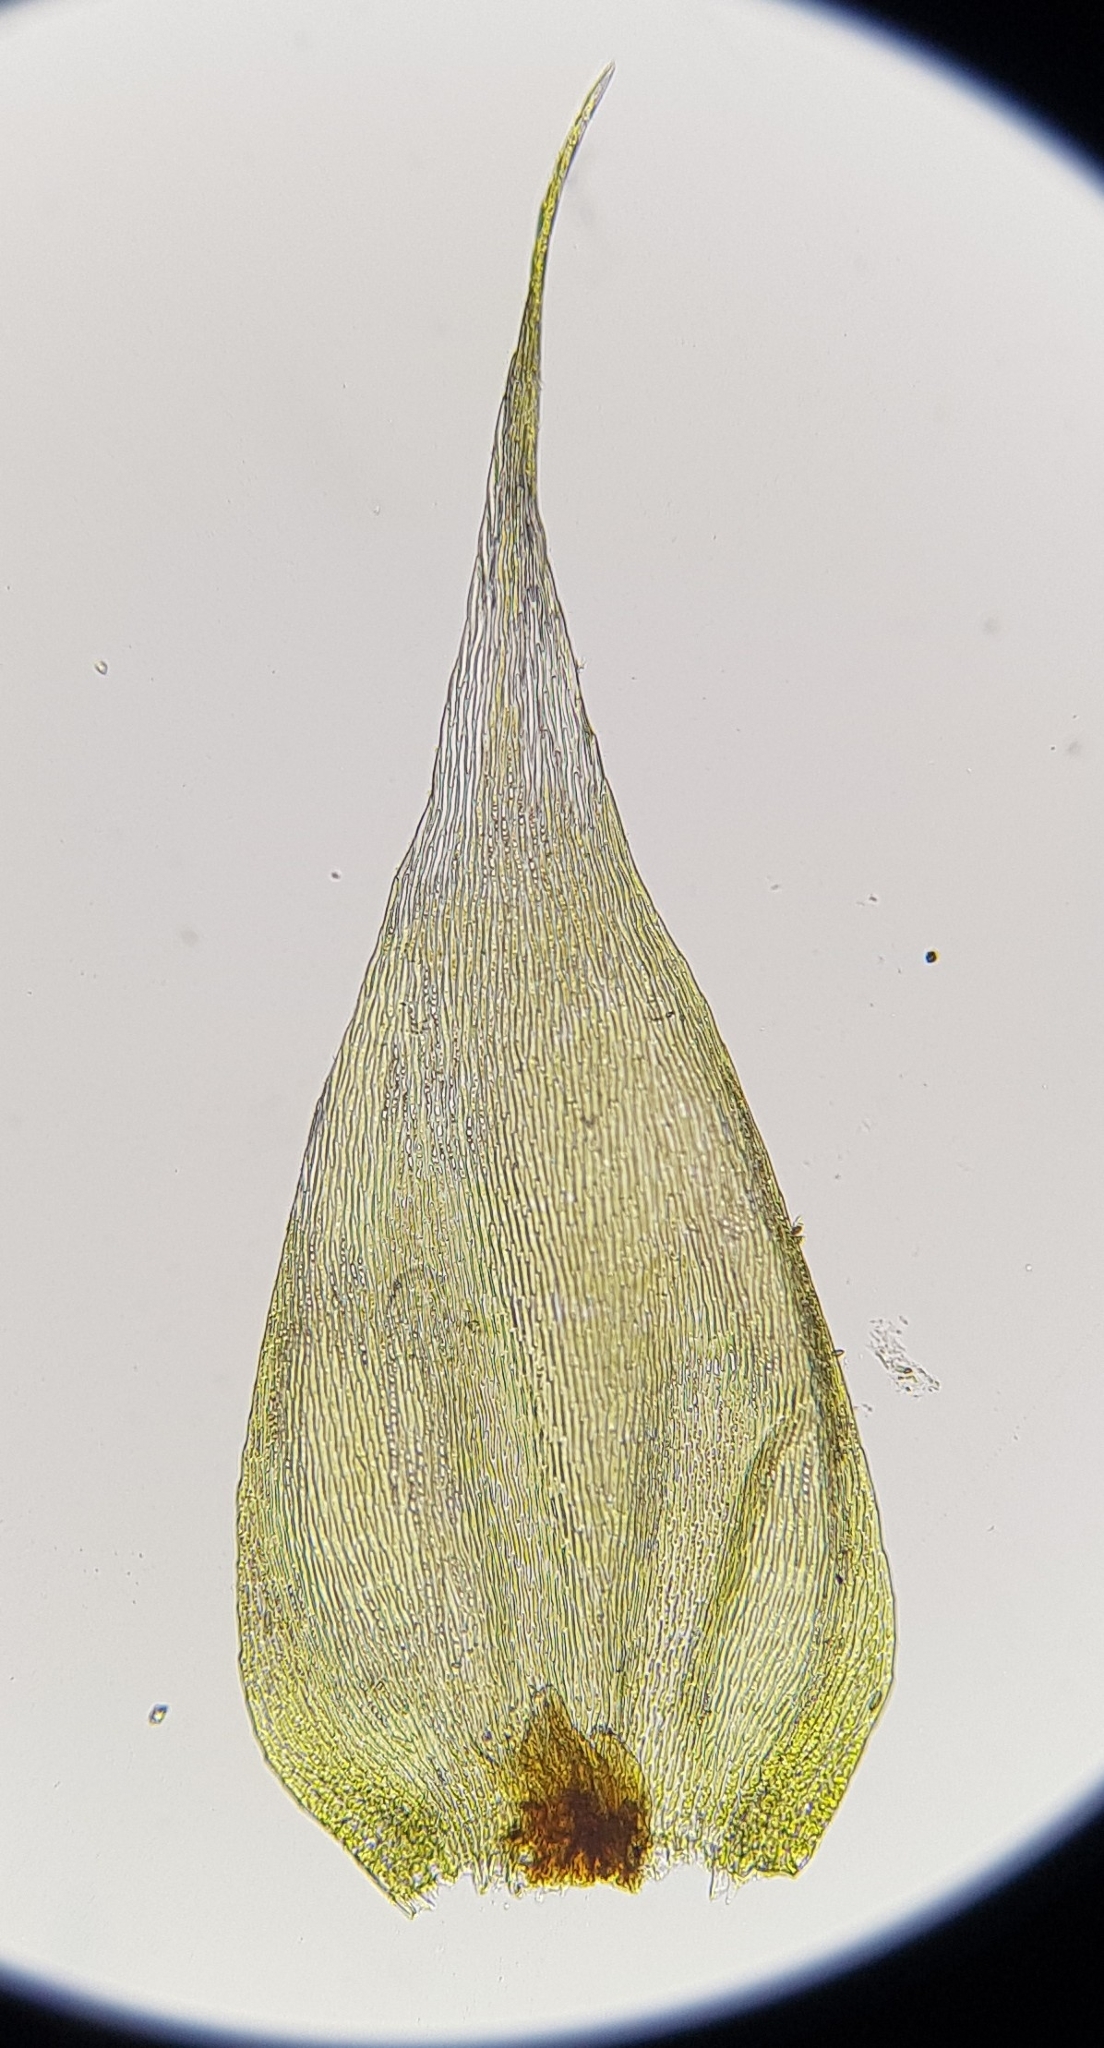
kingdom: Plantae
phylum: Bryophyta
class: Bryopsida
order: Hypnales
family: Hypnaceae
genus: Hypnum
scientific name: Hypnum resupinatum
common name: Supine plait-moss
